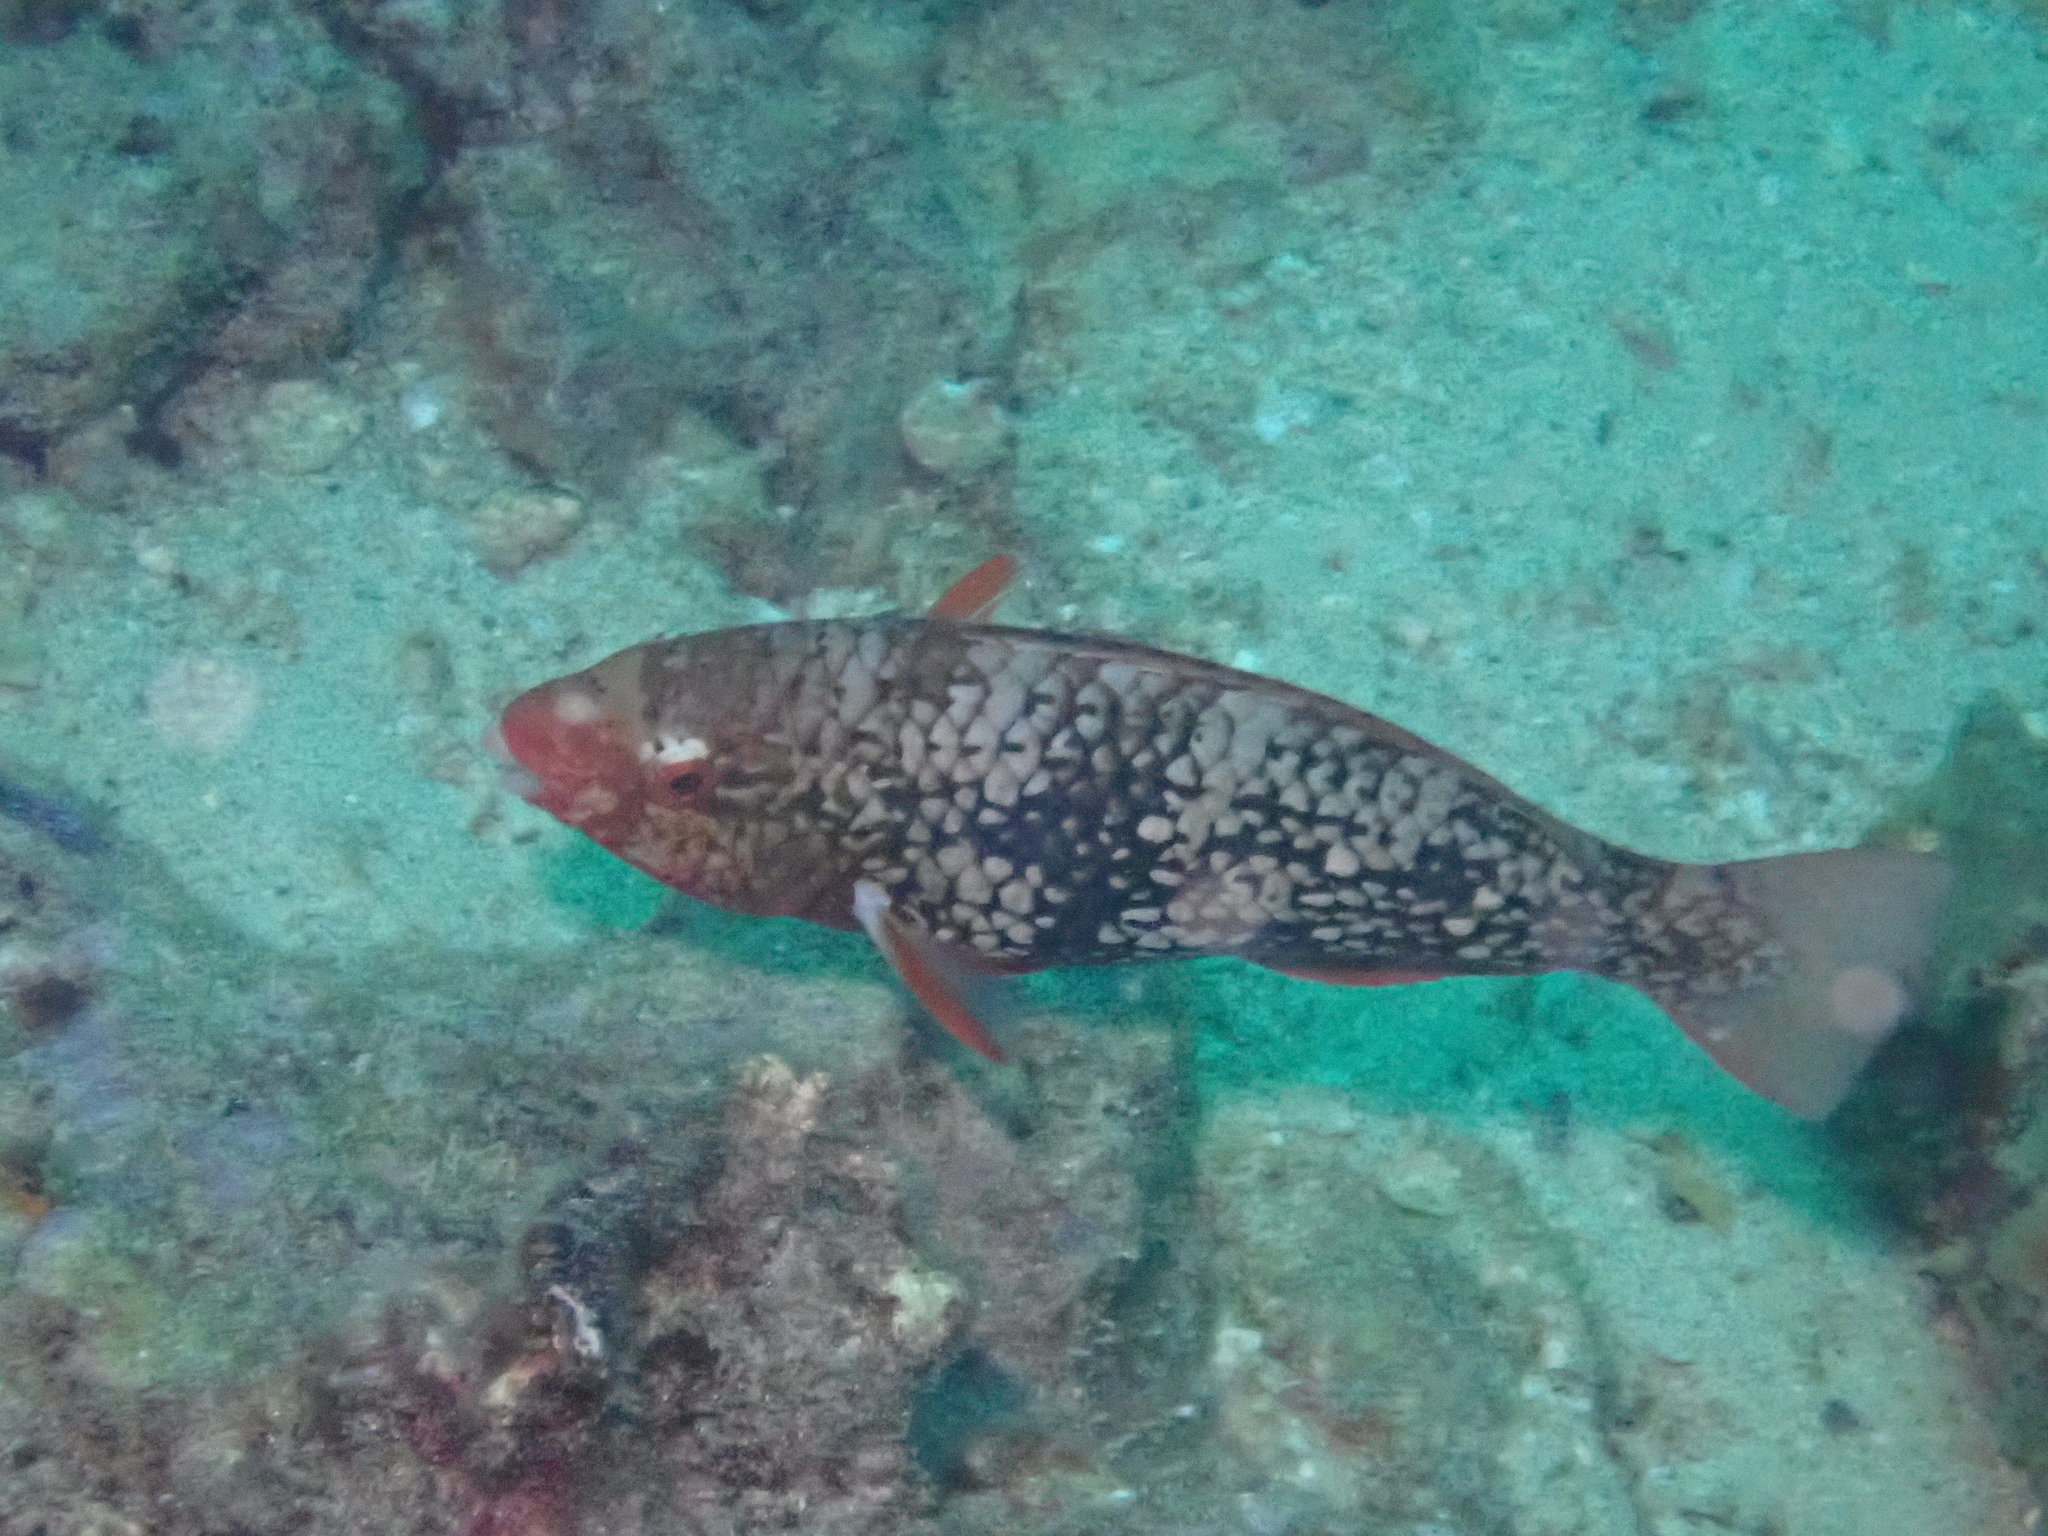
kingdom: Animalia
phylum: Chordata
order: Perciformes
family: Scaridae
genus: Scarus
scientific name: Scarus rubroviolaceus
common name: Ember parrotfish
